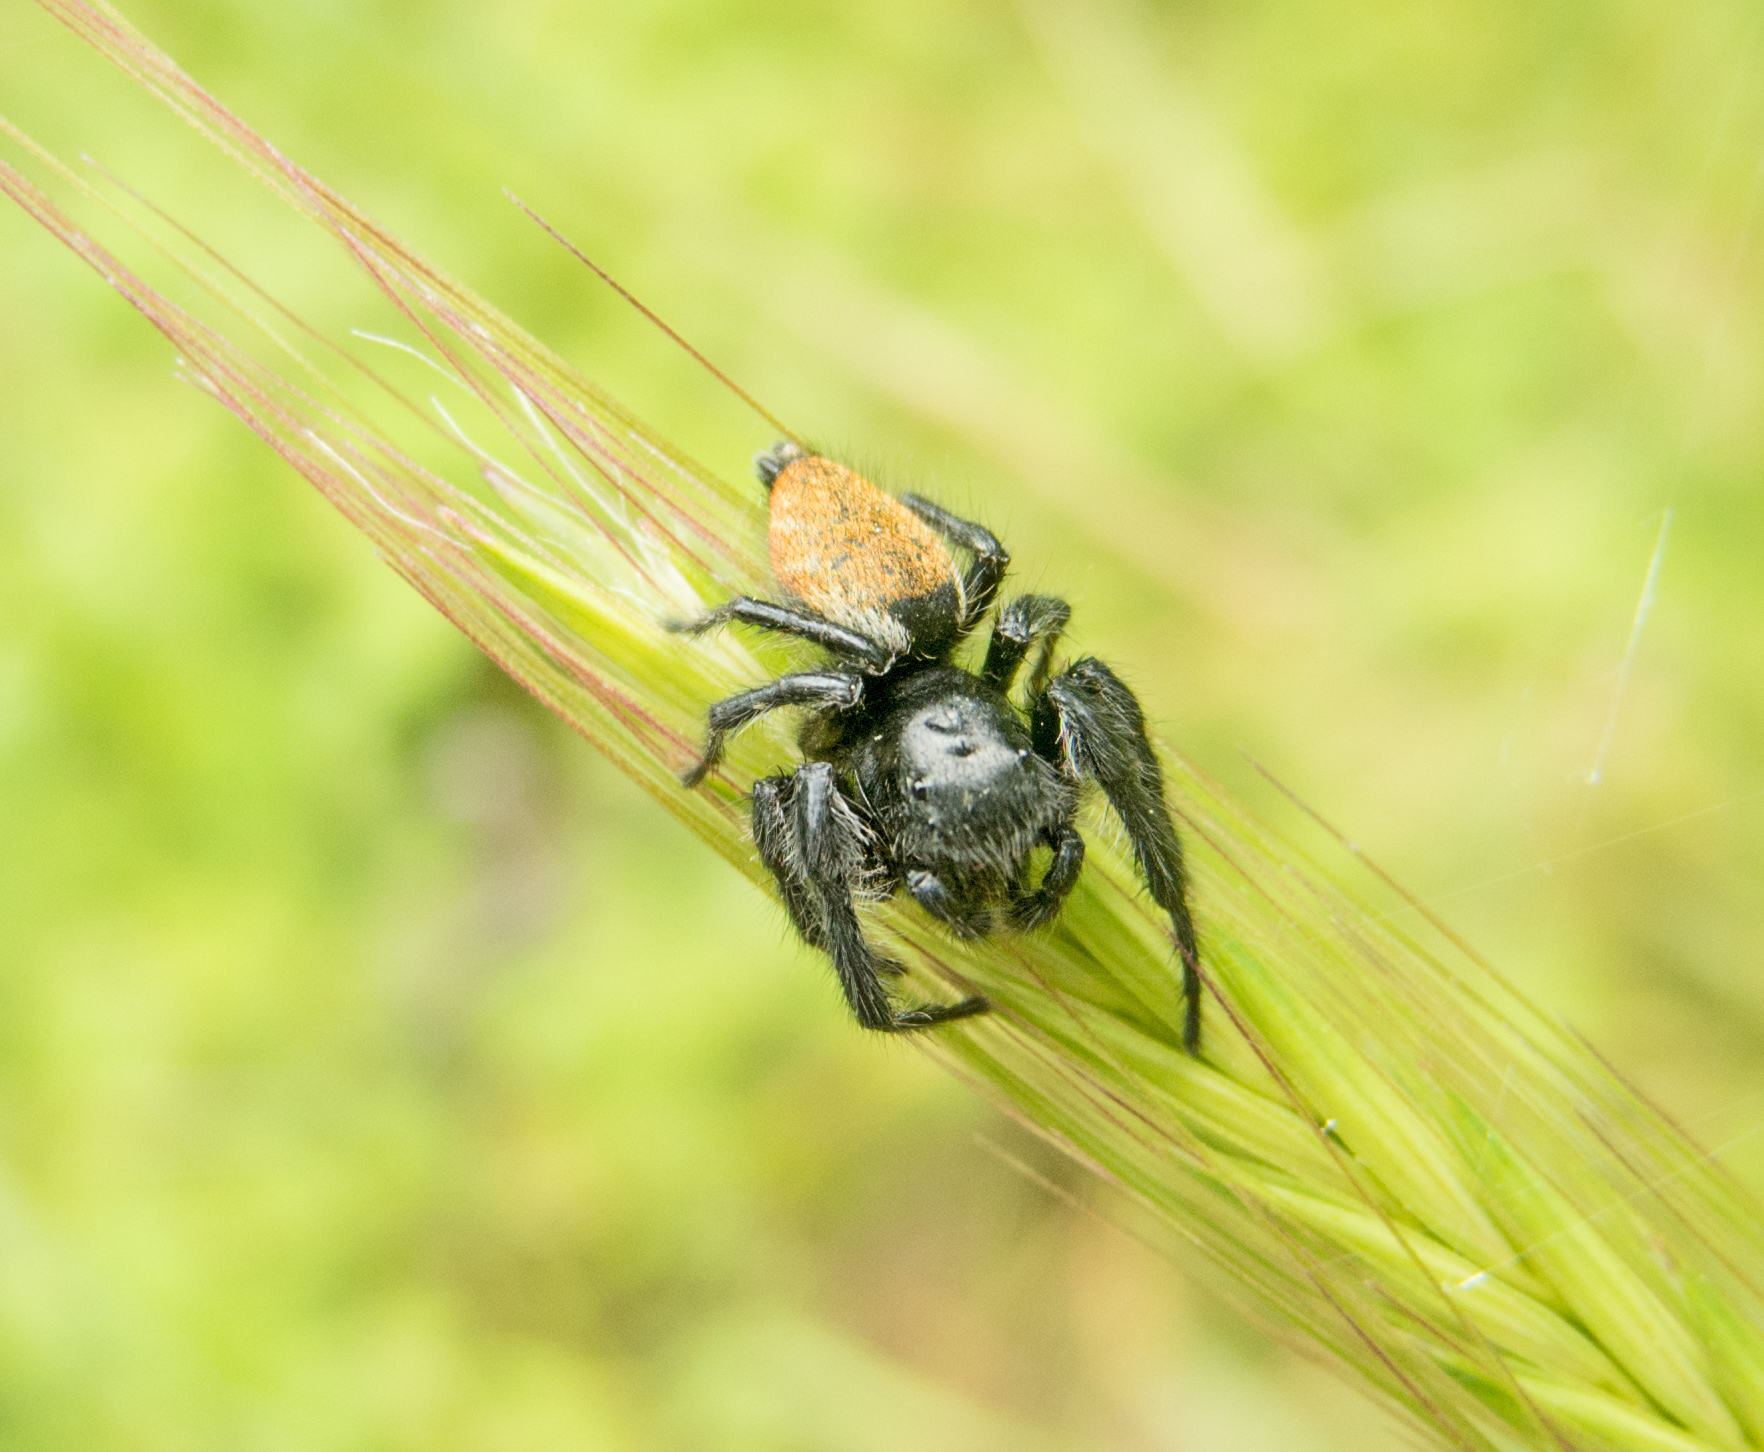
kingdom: Animalia
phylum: Arthropoda
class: Arachnida
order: Araneae
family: Salticidae
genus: Carrhotus
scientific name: Carrhotus xanthogramma
